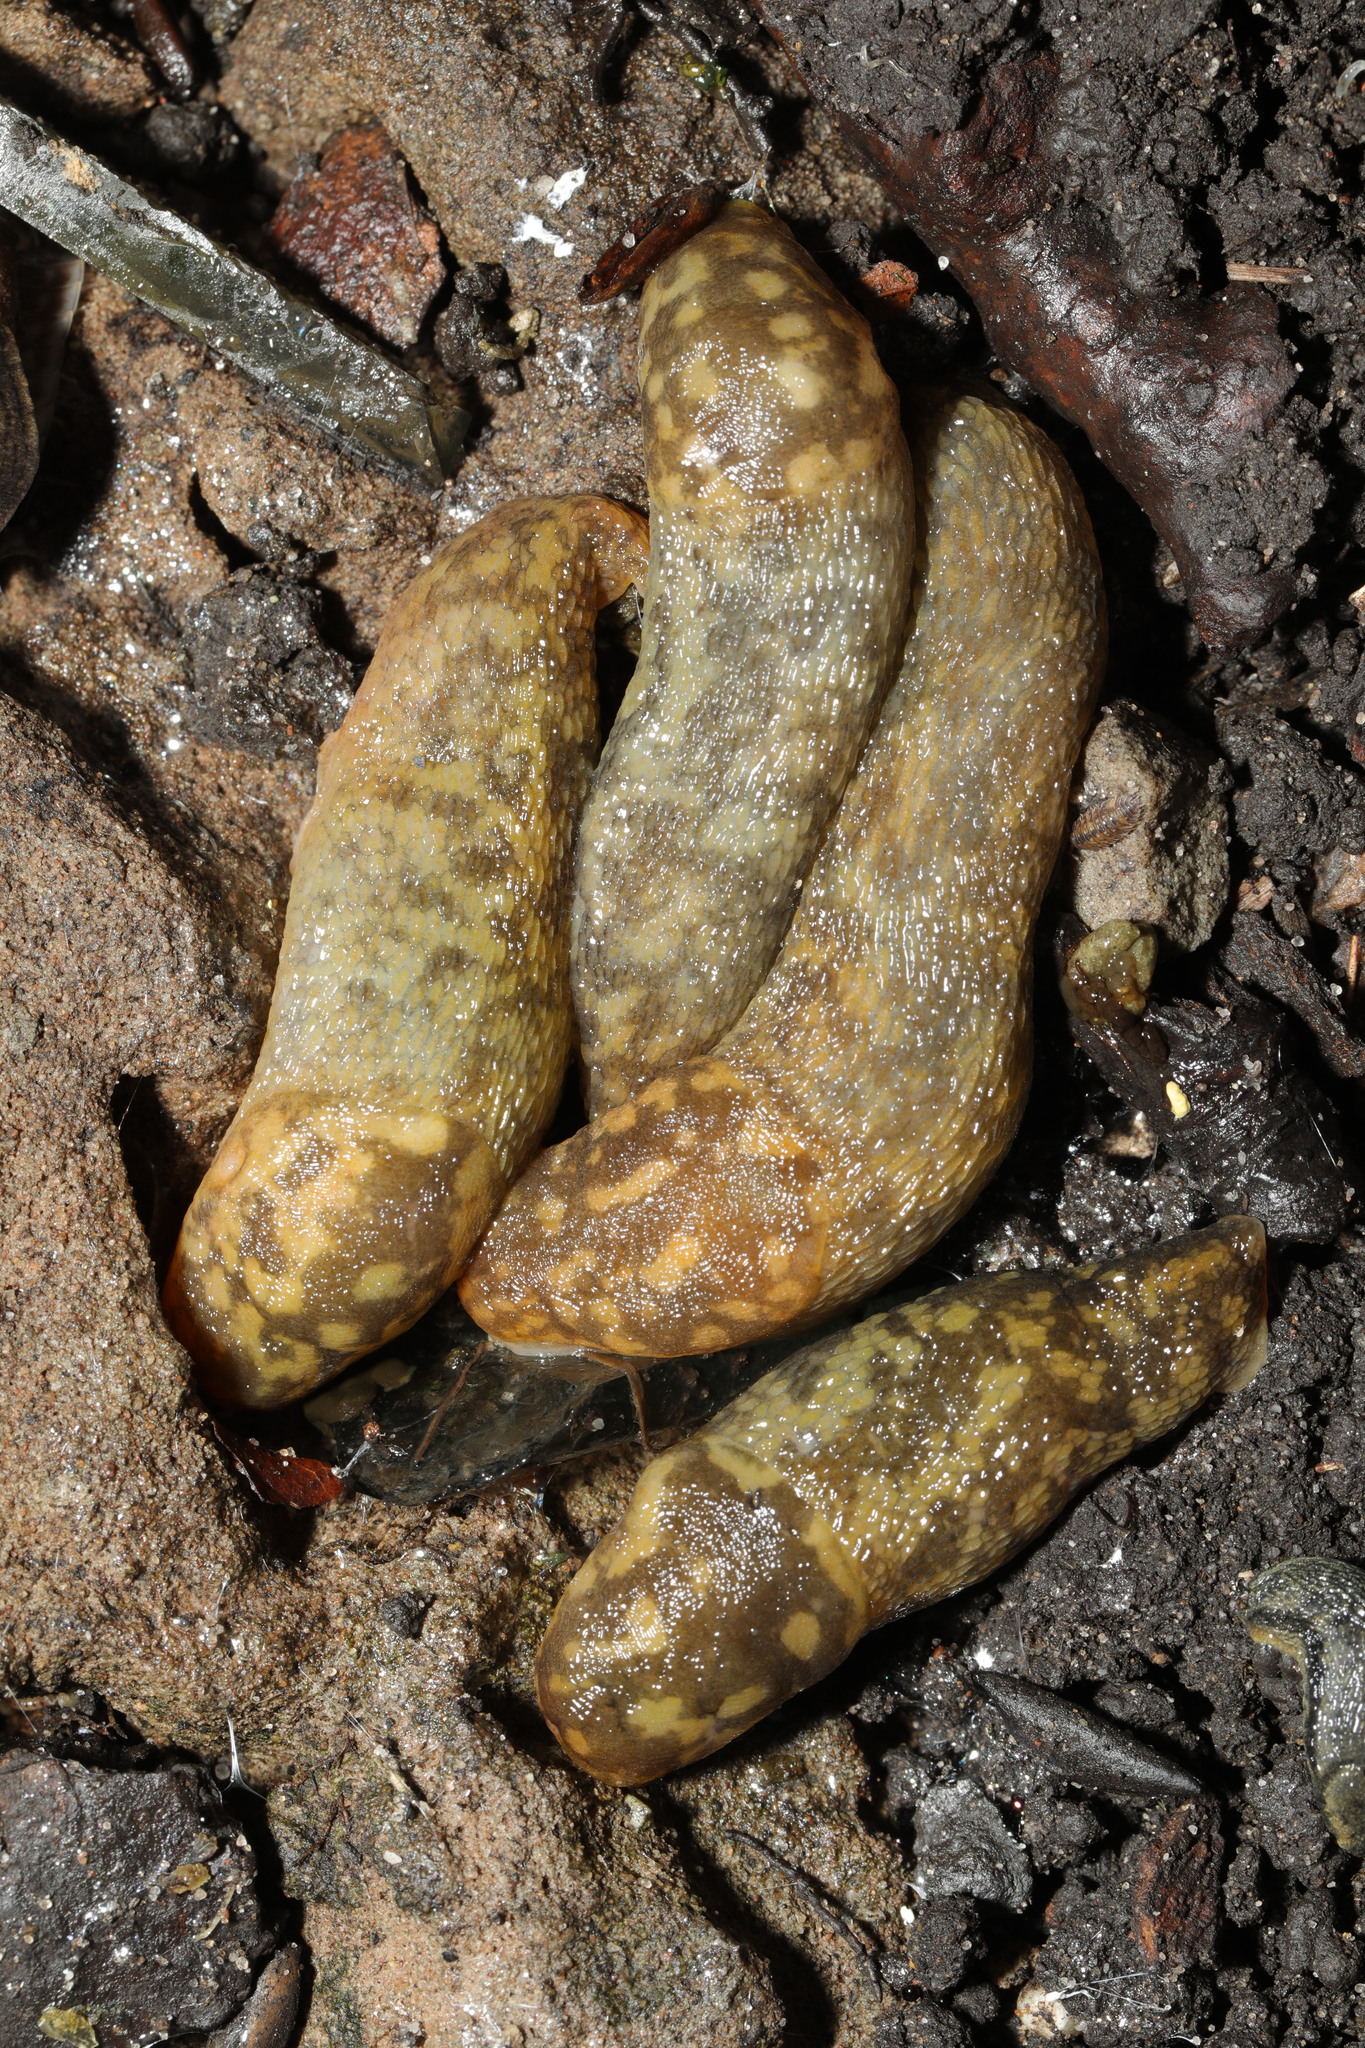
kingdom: Animalia
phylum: Mollusca
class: Gastropoda
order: Stylommatophora
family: Limacidae
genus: Limacus
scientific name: Limacus maculatus
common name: Irish yellow slug
